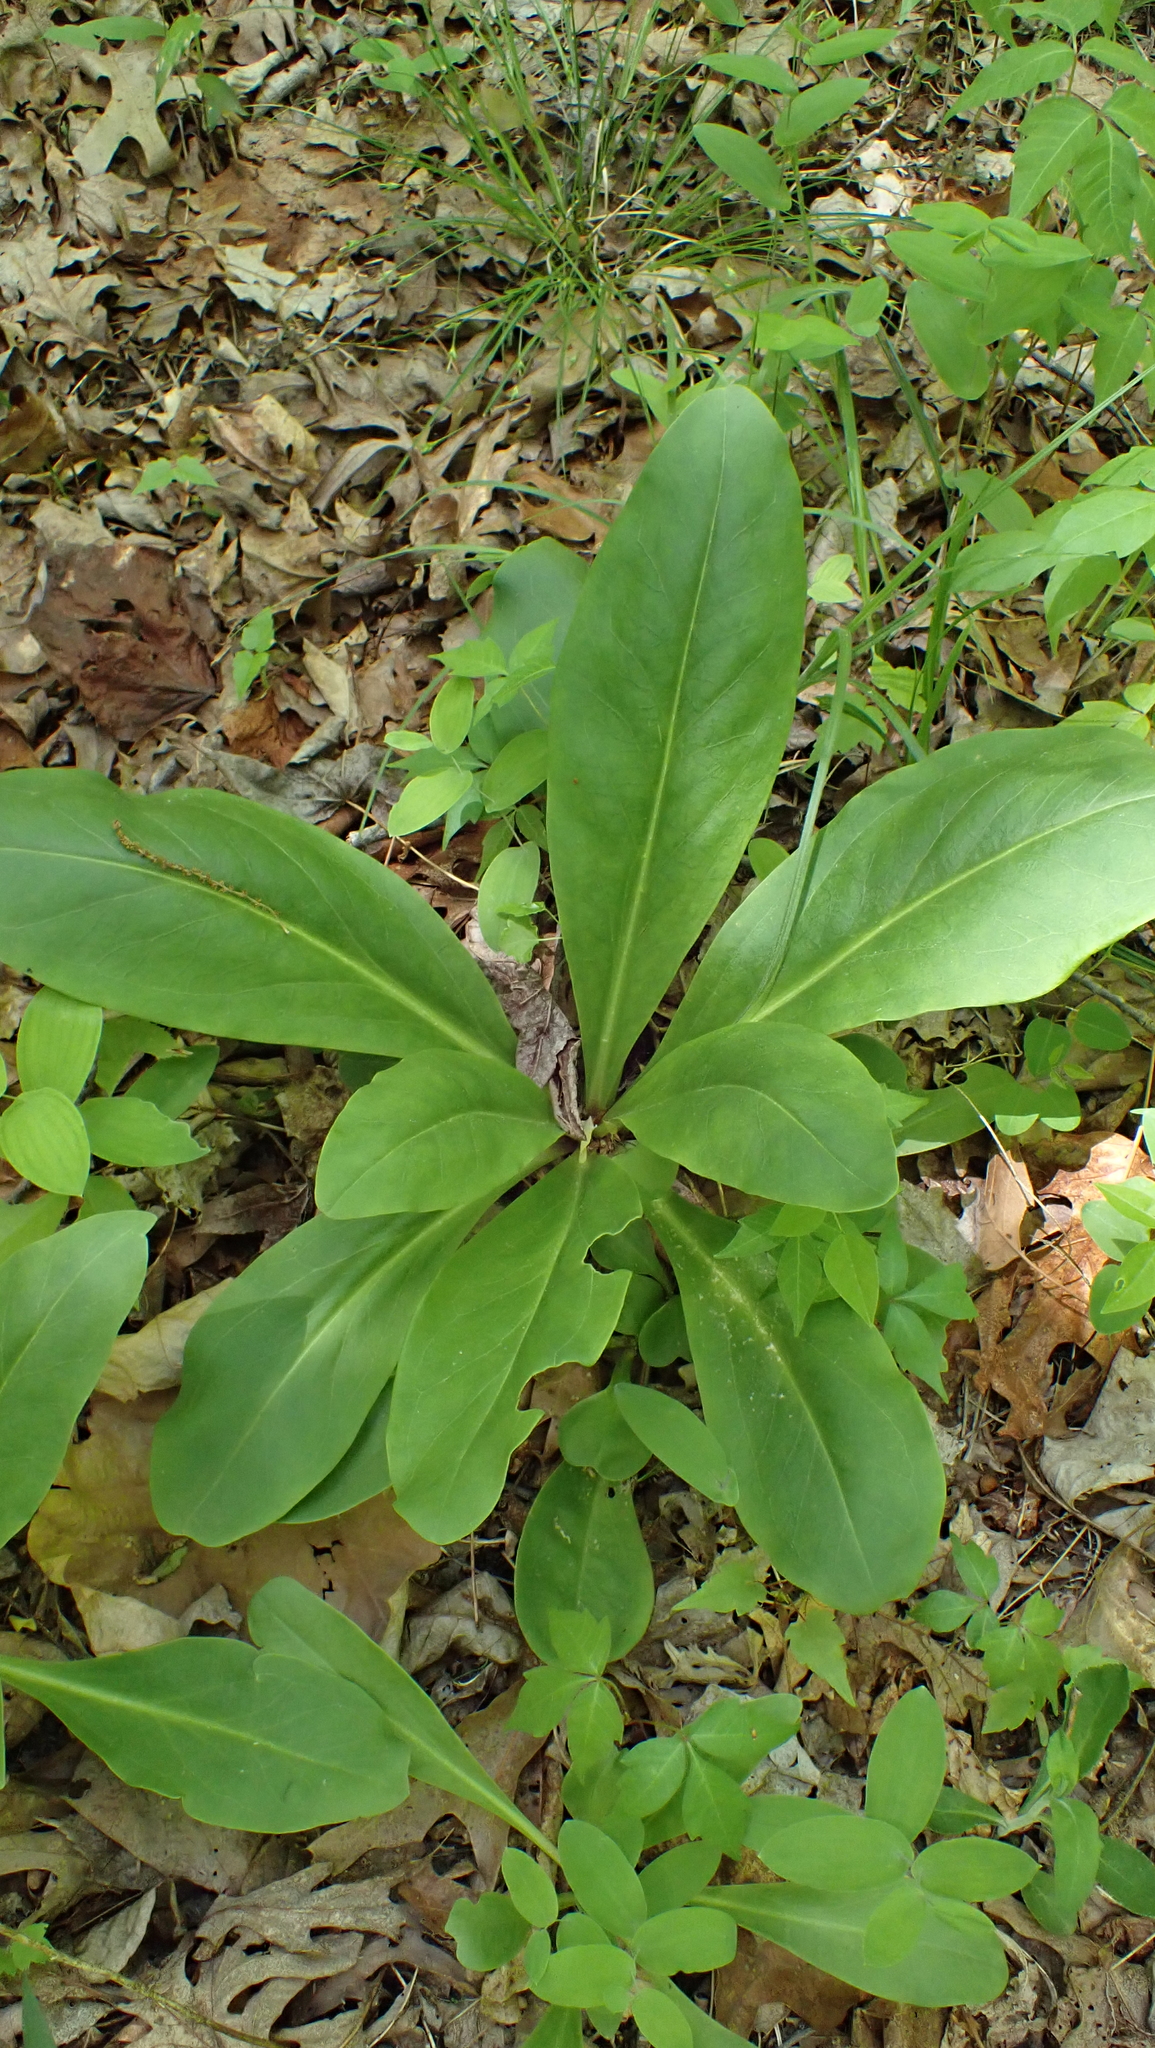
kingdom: Plantae
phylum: Tracheophyta
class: Magnoliopsida
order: Gentianales
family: Gentianaceae
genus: Frasera
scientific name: Frasera caroliniensis
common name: American columbo
